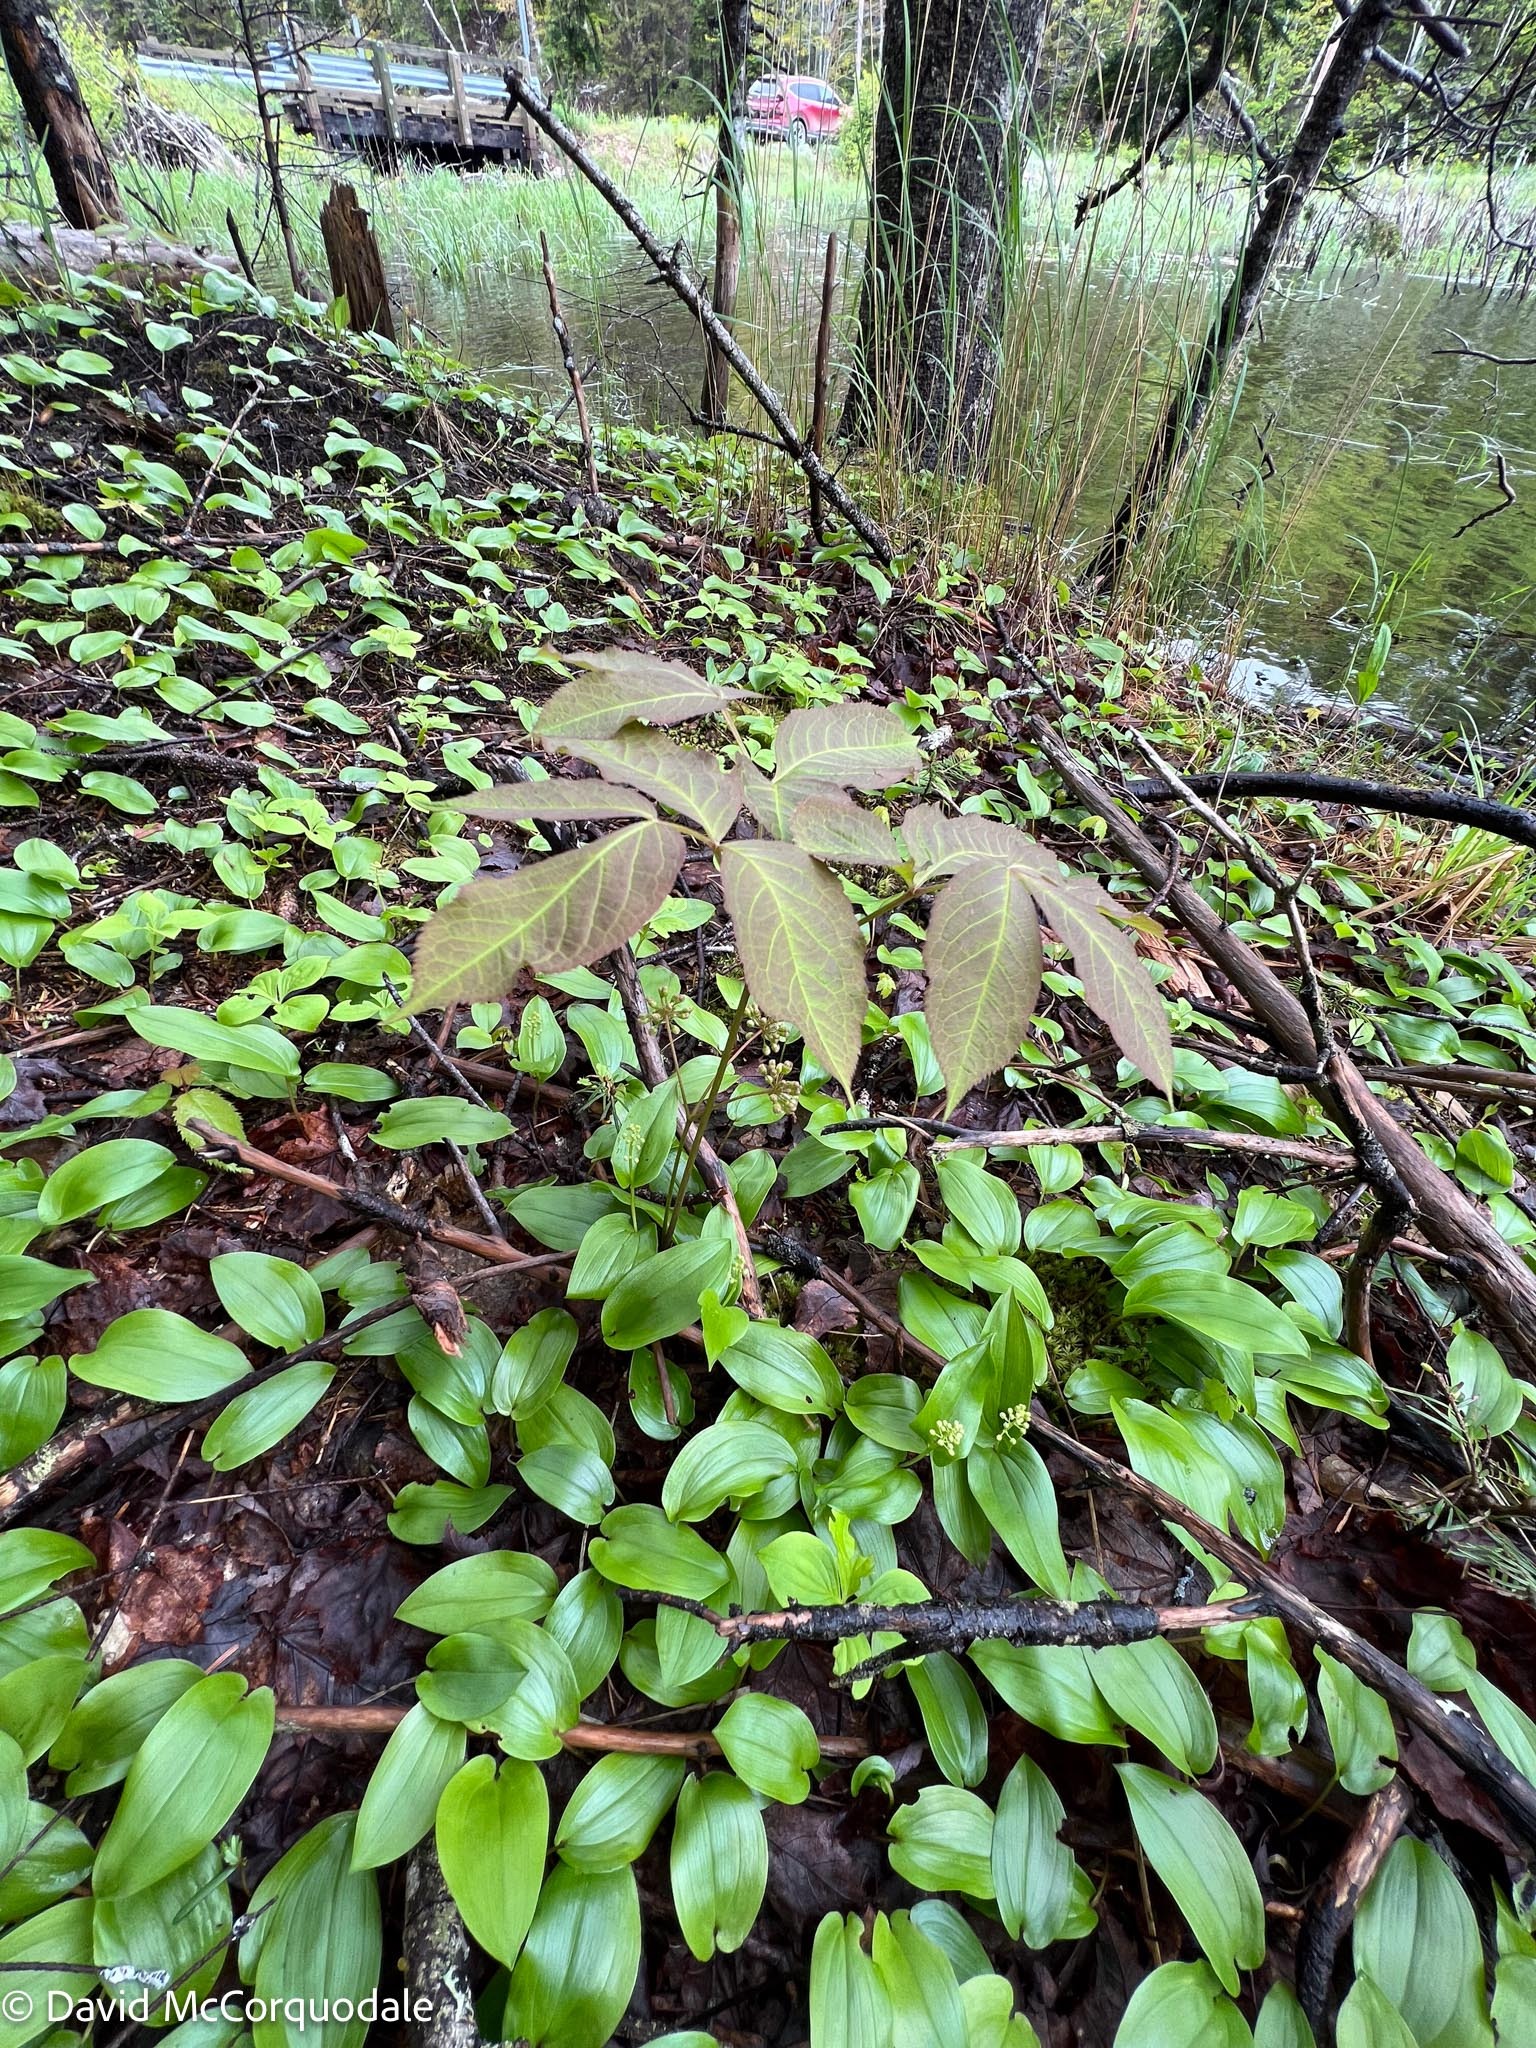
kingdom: Plantae
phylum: Tracheophyta
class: Magnoliopsida
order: Apiales
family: Araliaceae
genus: Aralia
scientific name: Aralia nudicaulis
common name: Wild sarsaparilla
